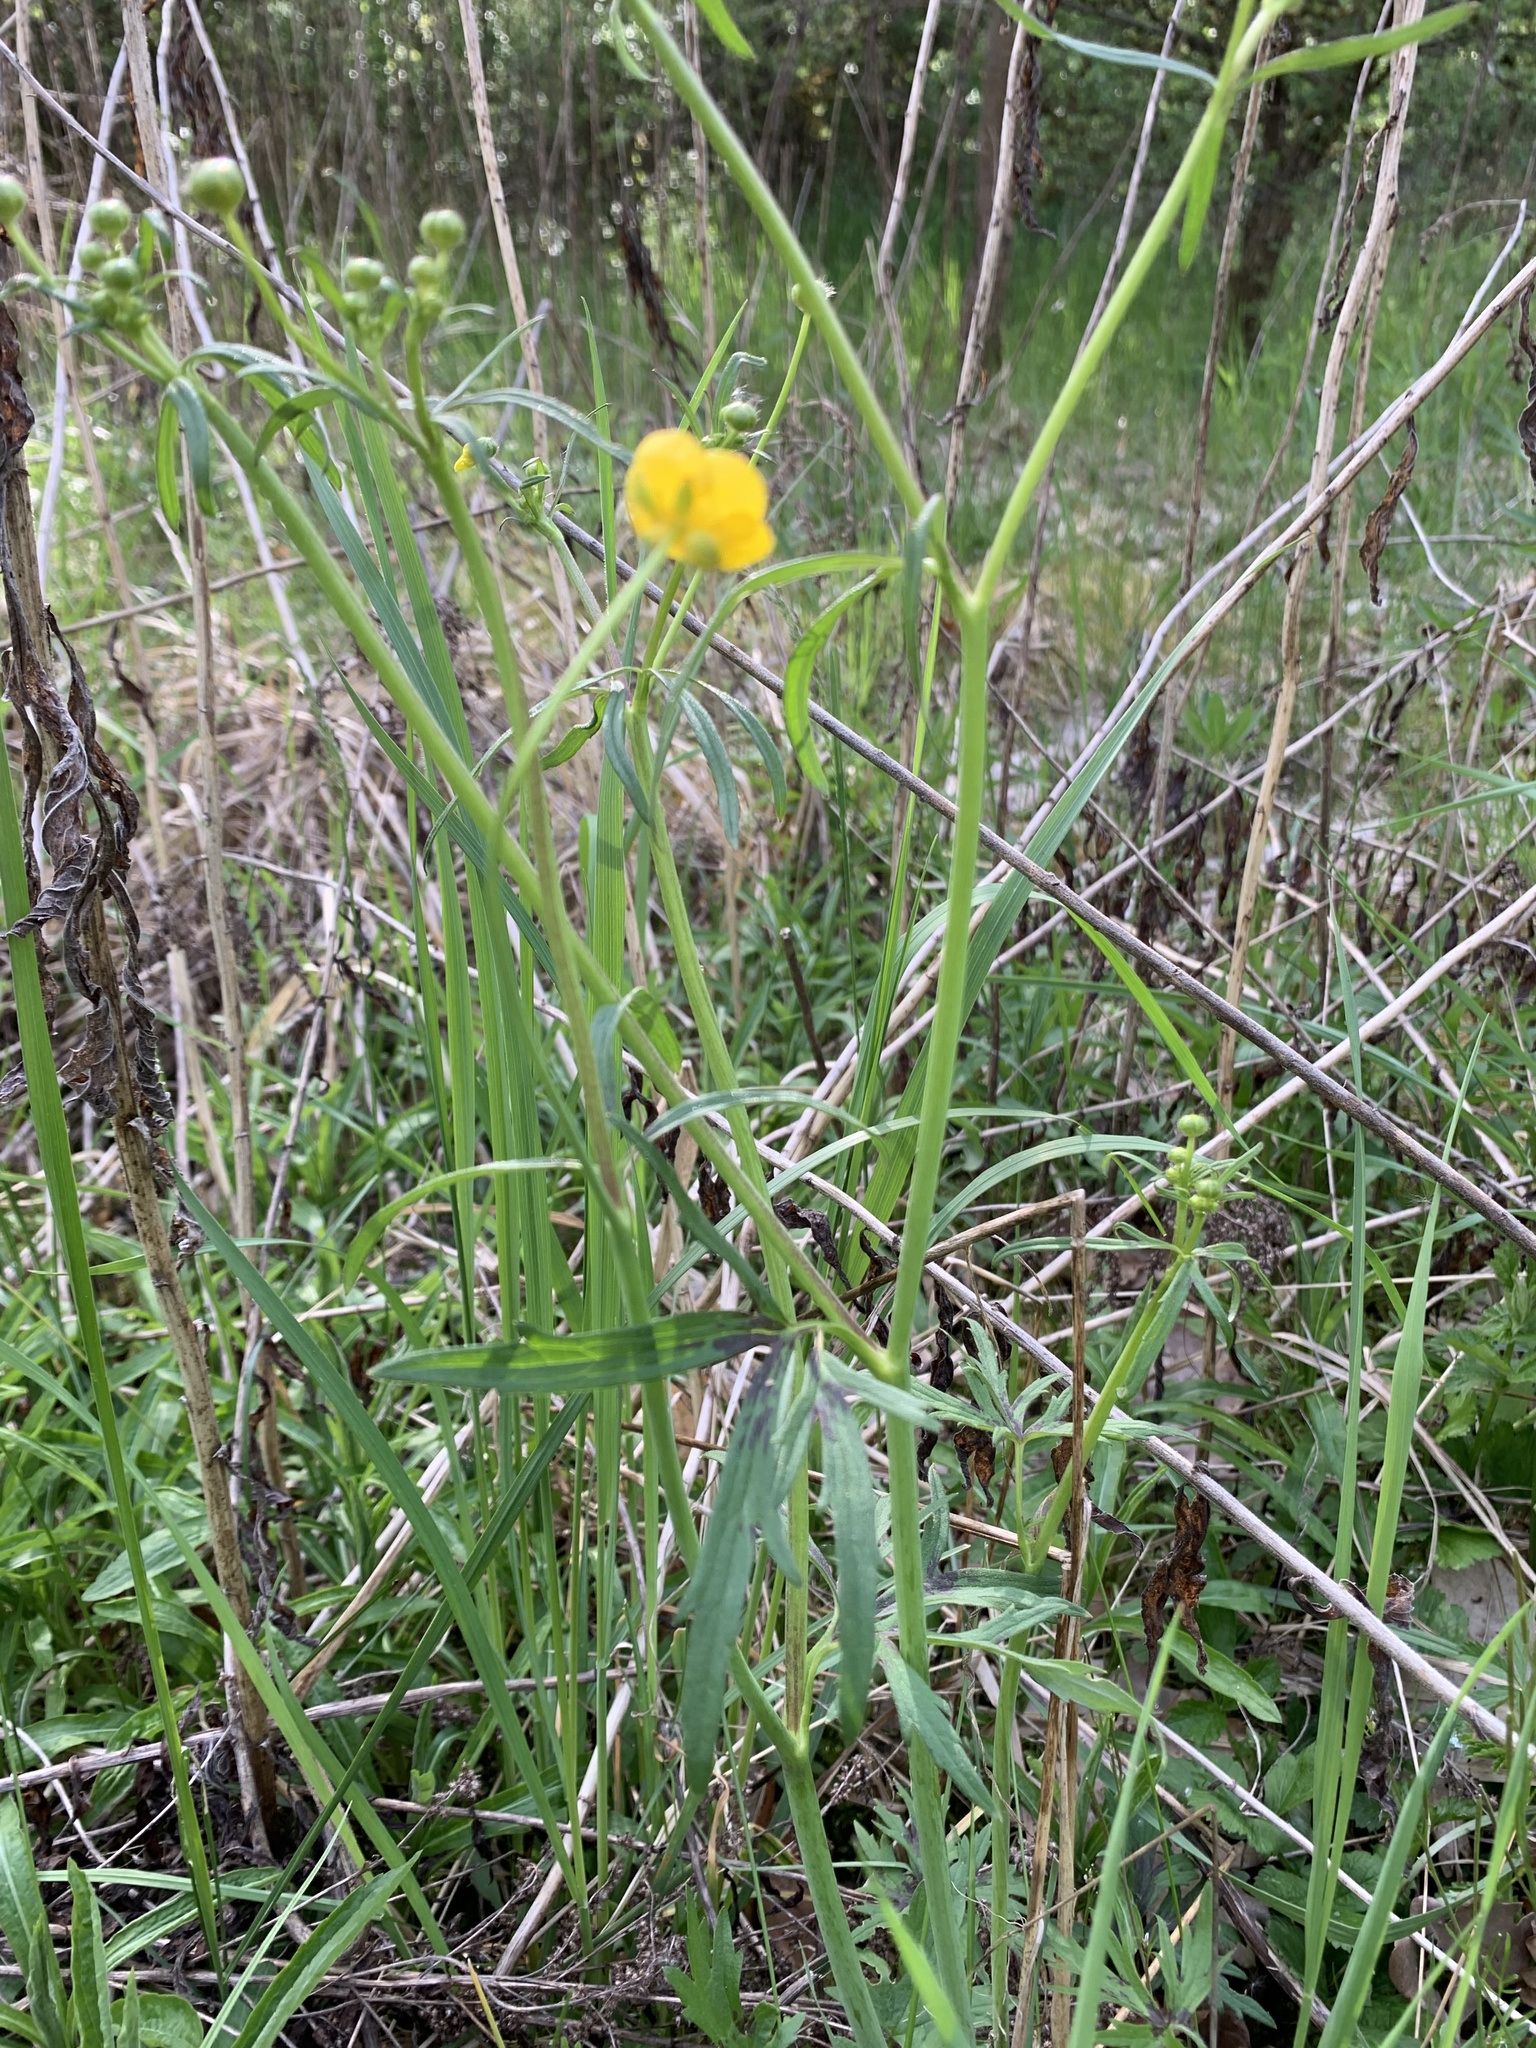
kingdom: Plantae
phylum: Tracheophyta
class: Magnoliopsida
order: Ranunculales
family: Ranunculaceae
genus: Ranunculus
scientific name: Ranunculus acris
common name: Meadow buttercup
